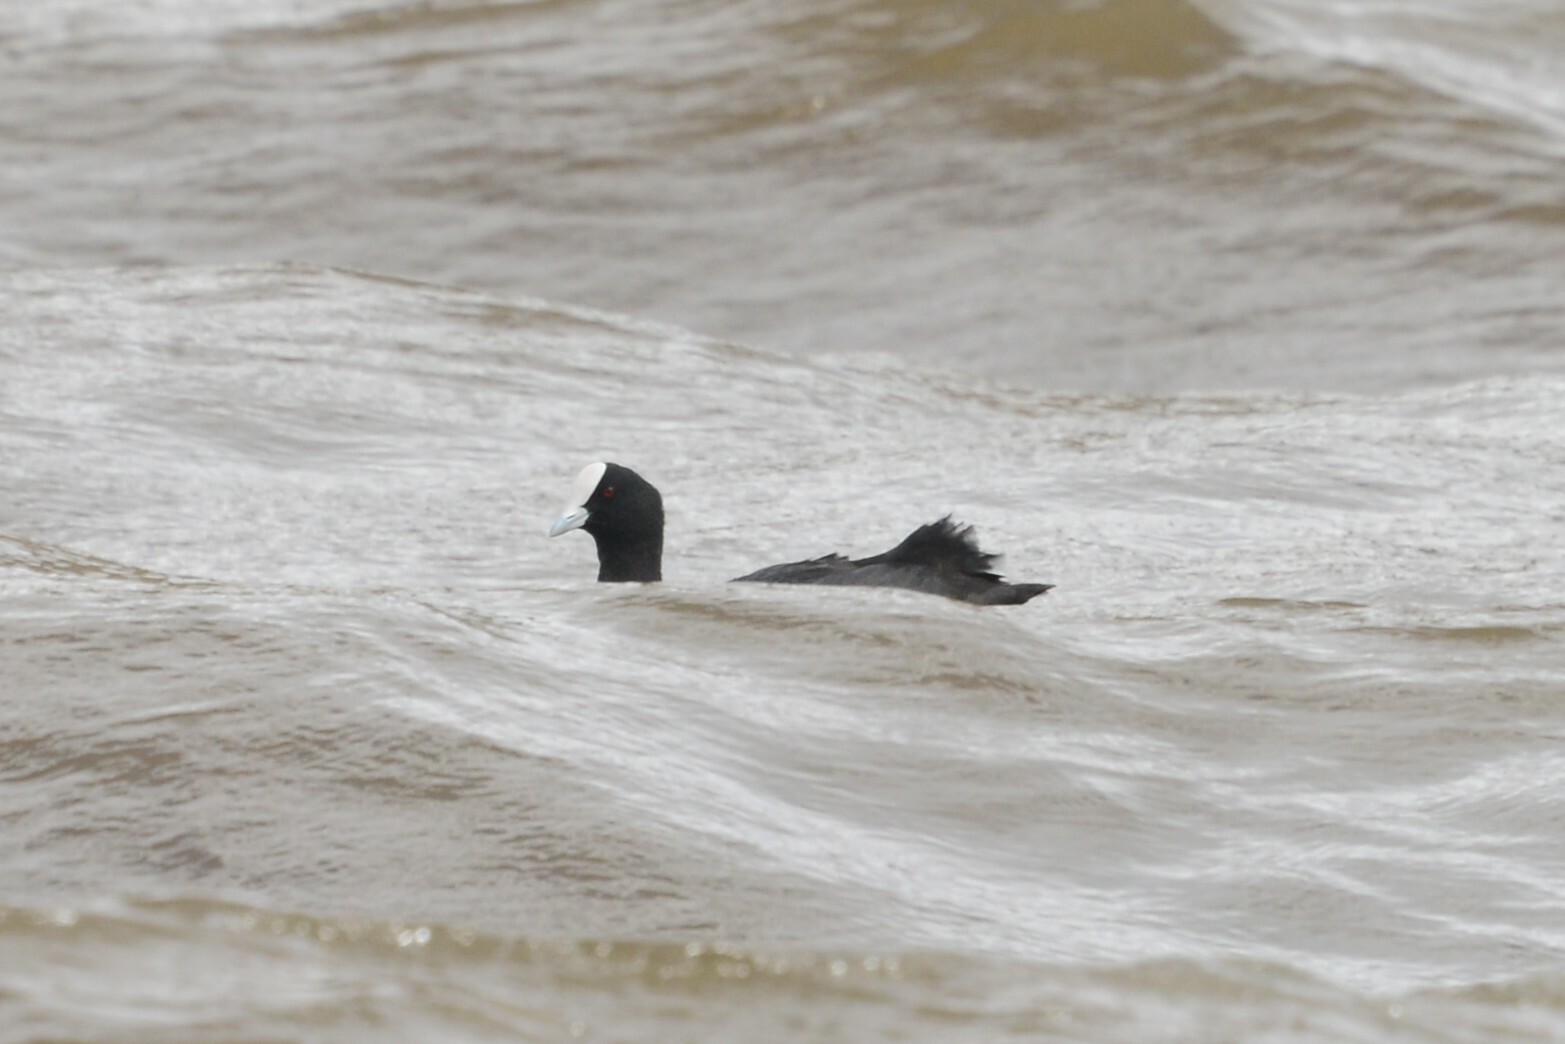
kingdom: Animalia
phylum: Chordata
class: Aves
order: Gruiformes
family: Rallidae
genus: Fulica
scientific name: Fulica atra
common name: Eurasian coot
